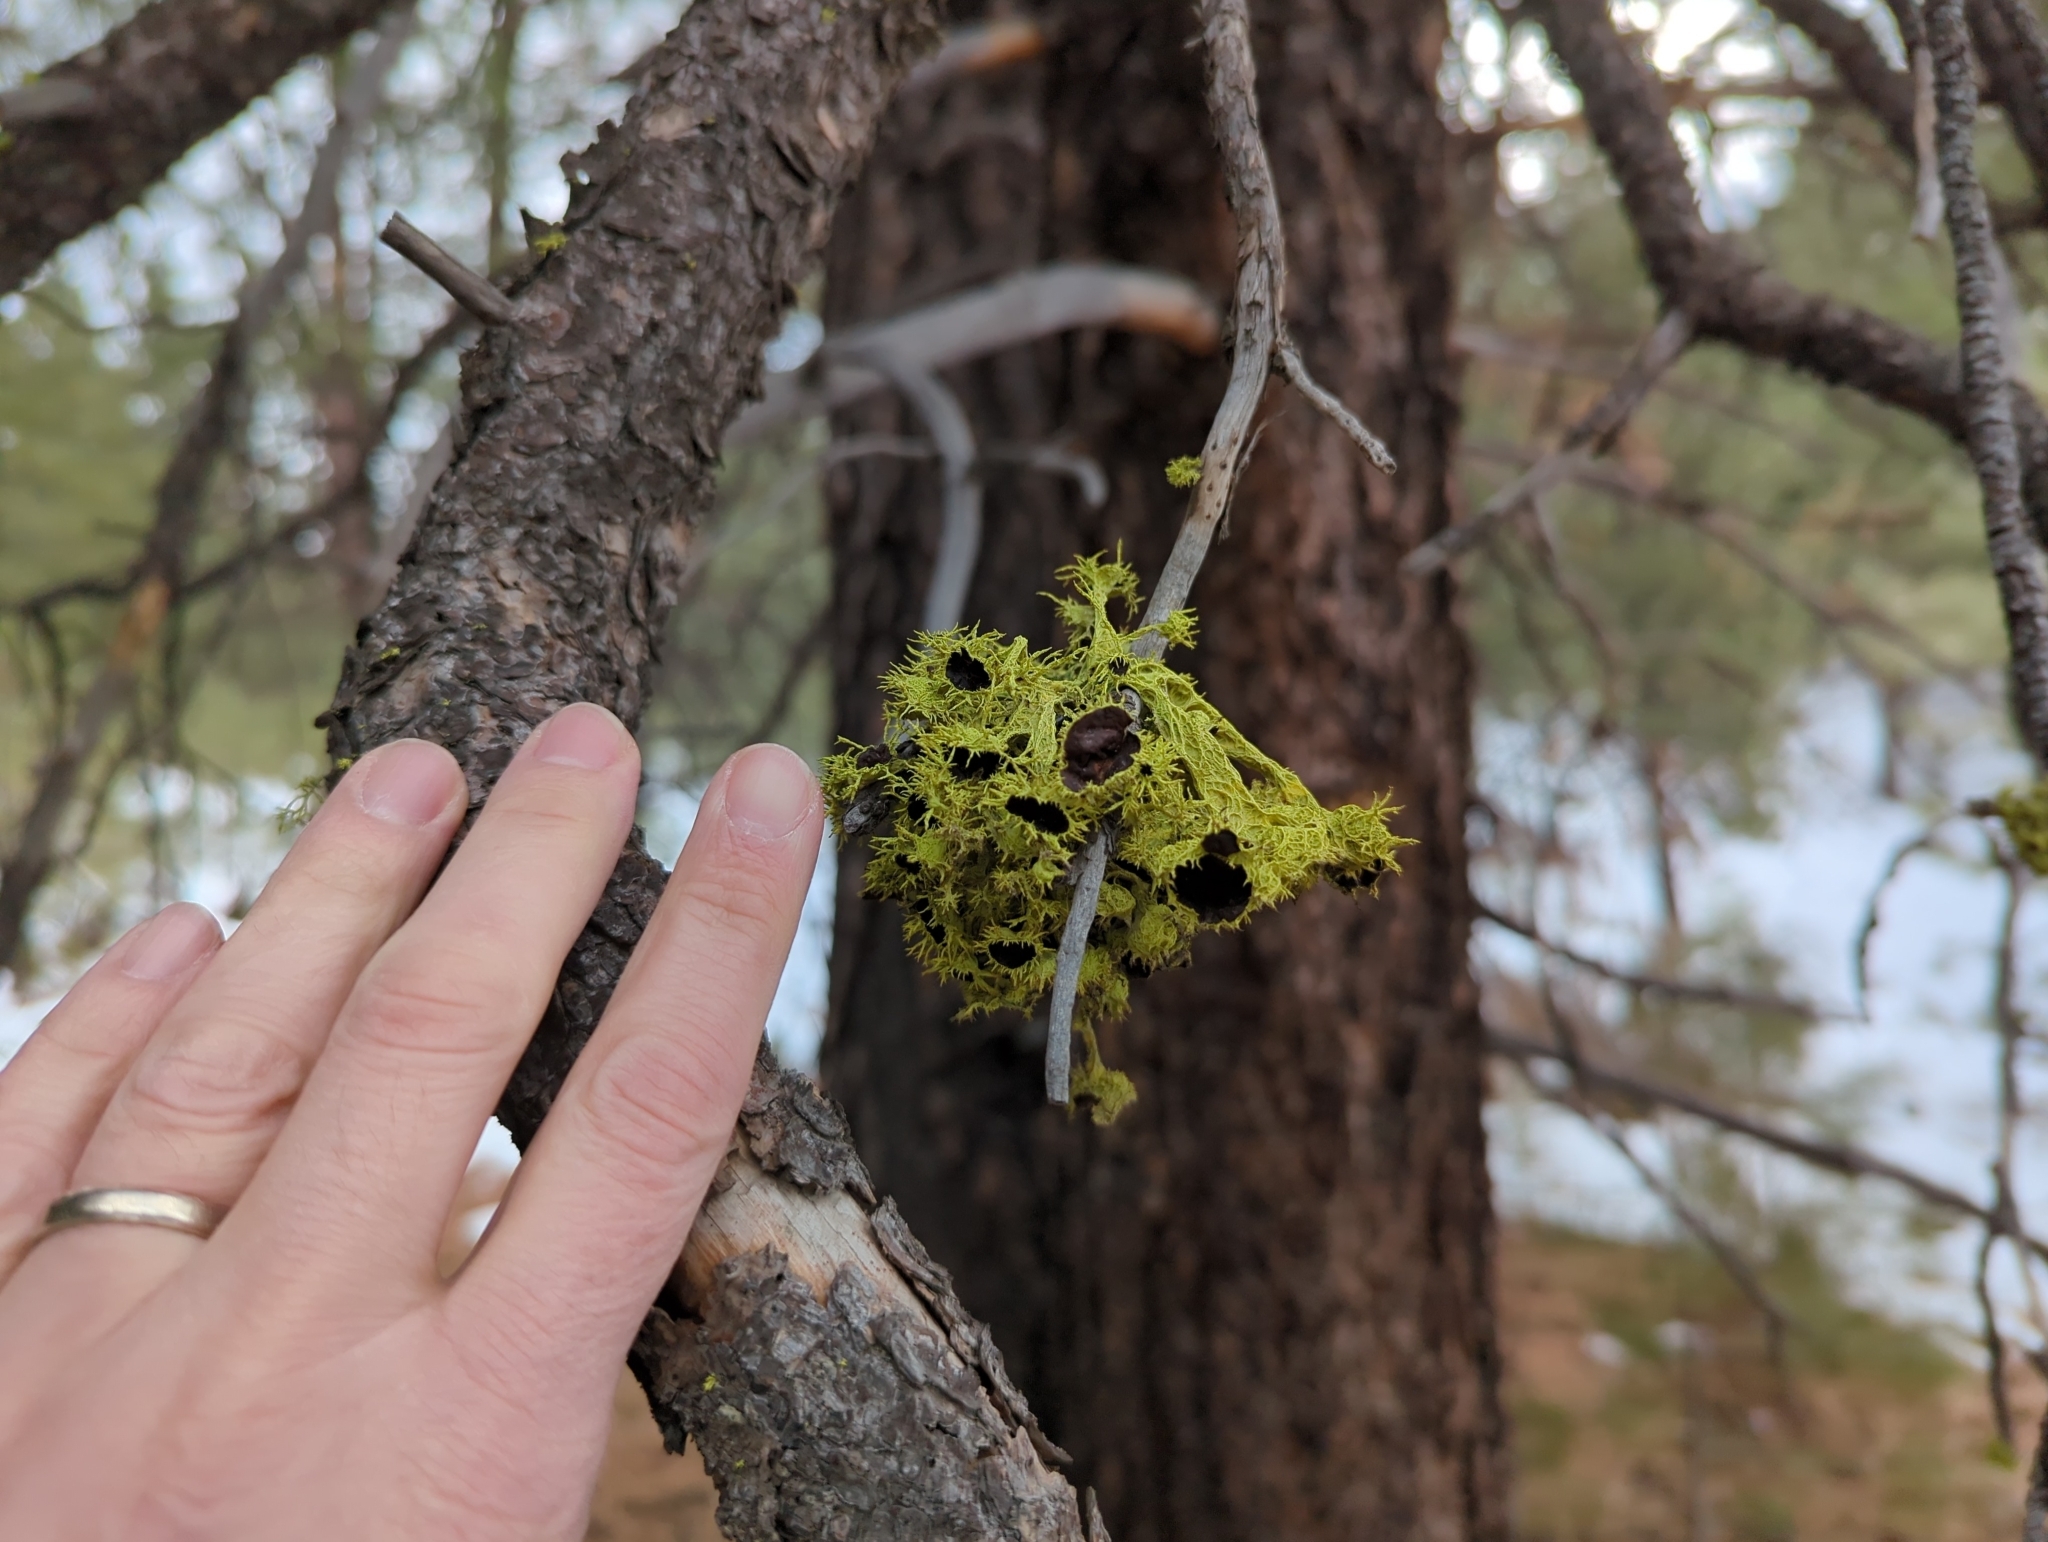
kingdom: Fungi
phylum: Ascomycota
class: Lecanoromycetes
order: Lecanorales
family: Parmeliaceae
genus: Letharia
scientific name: Letharia columbiana
